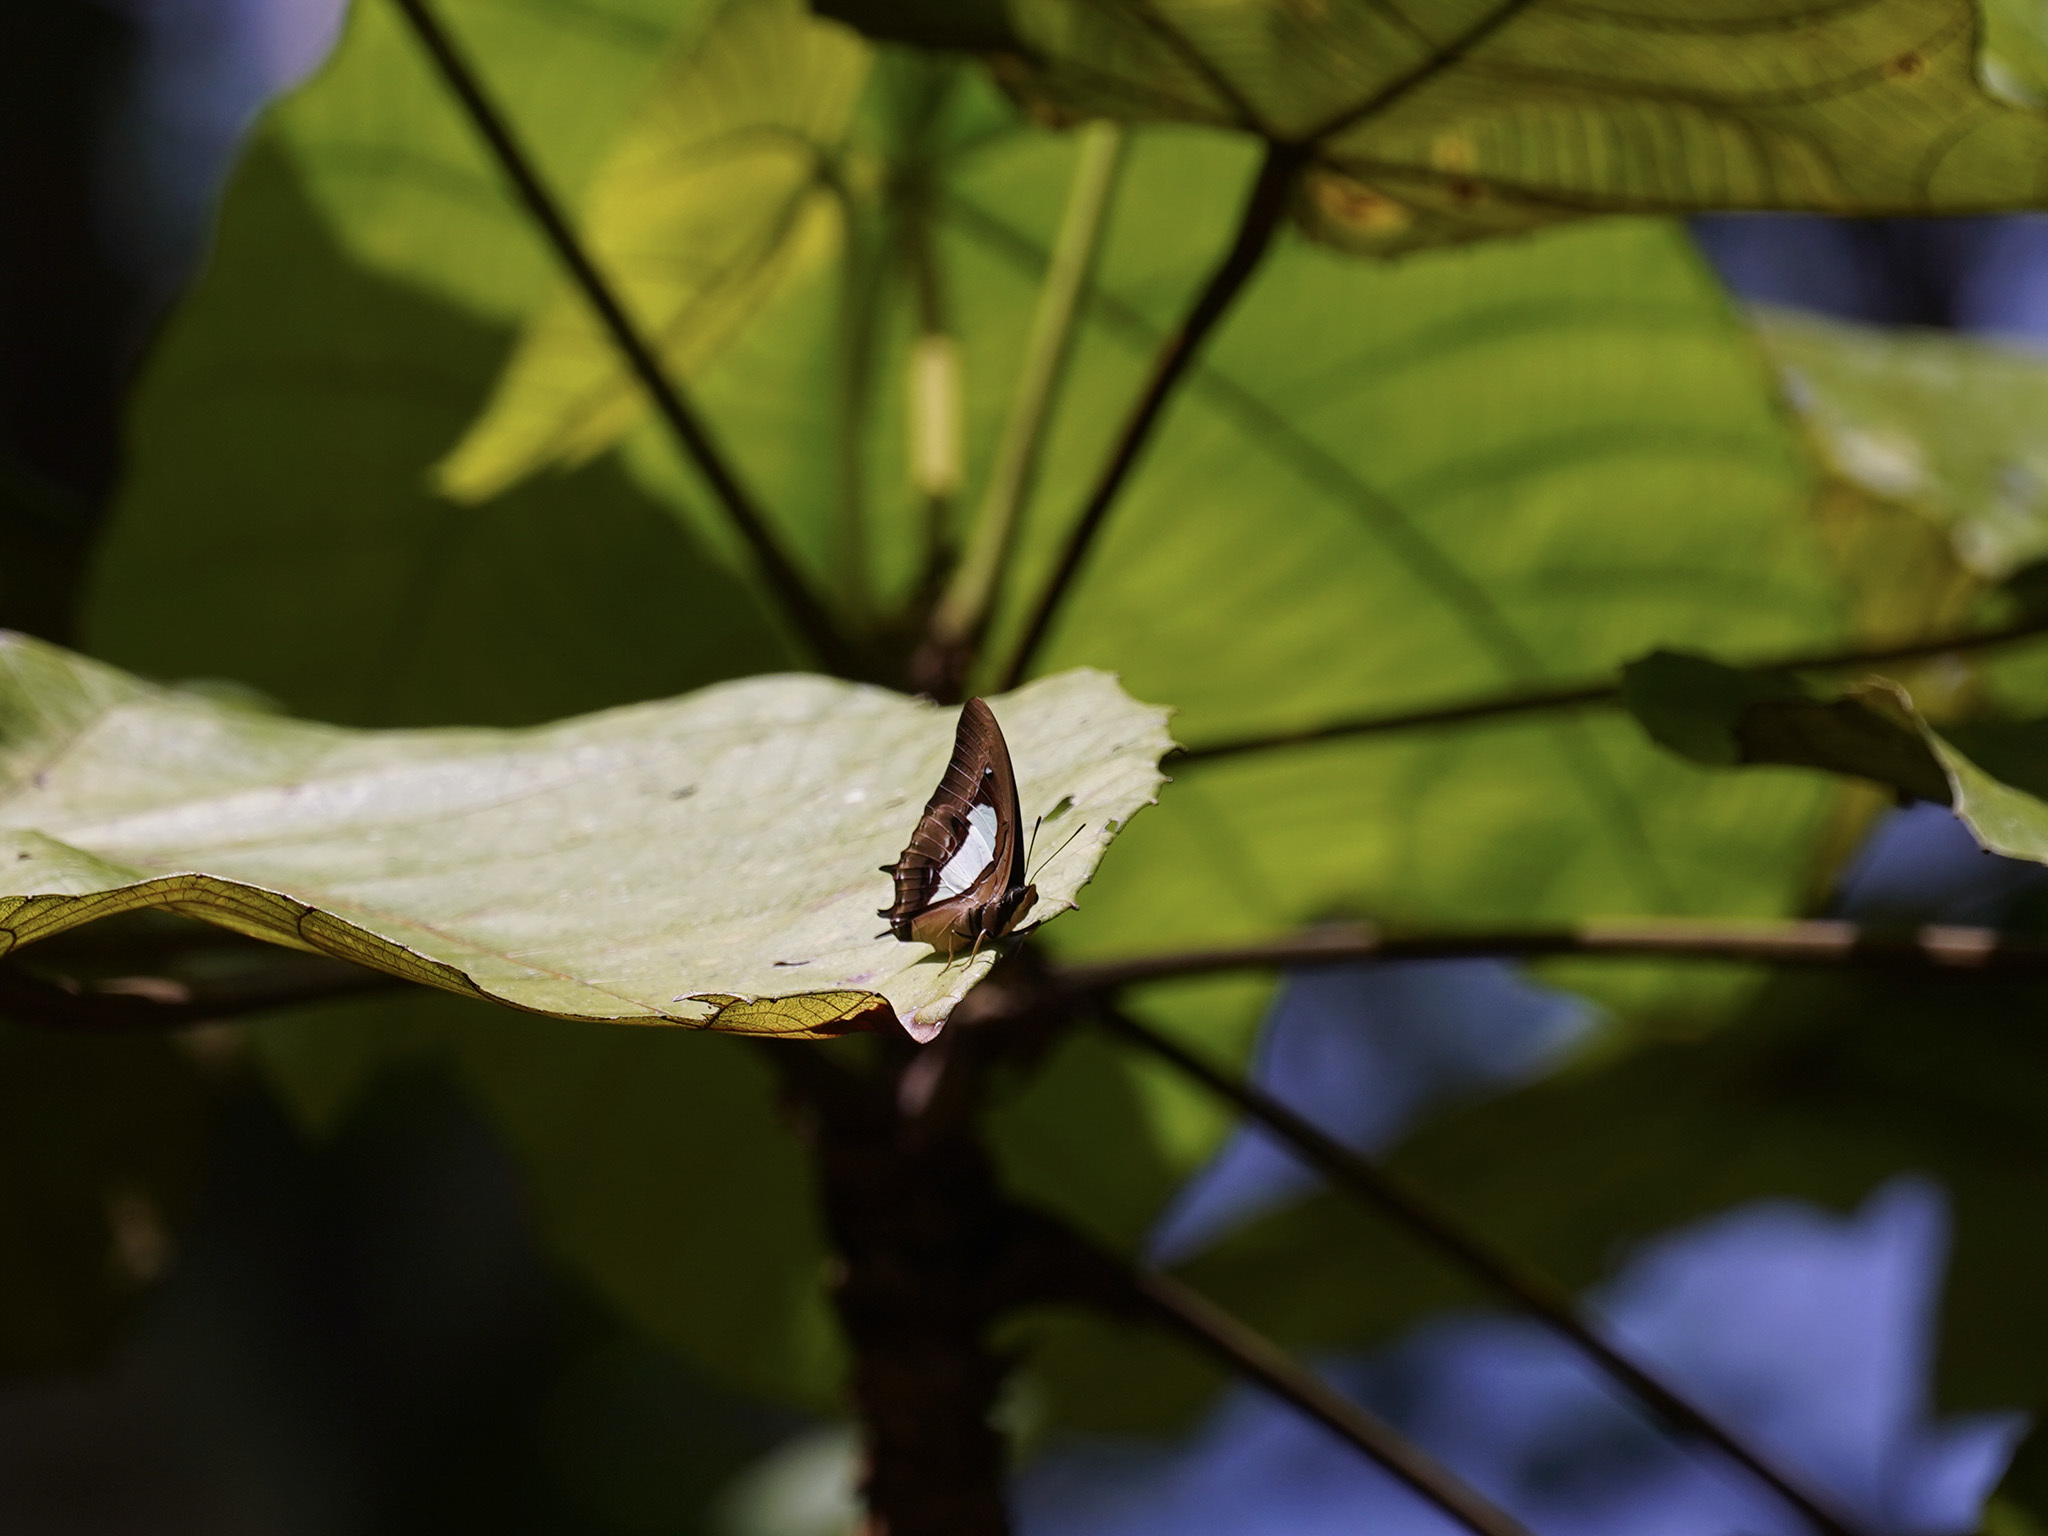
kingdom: Animalia
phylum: Arthropoda
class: Insecta
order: Lepidoptera
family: Nymphalidae
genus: Polyura
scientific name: Polyura hebe
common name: Plain nawab
